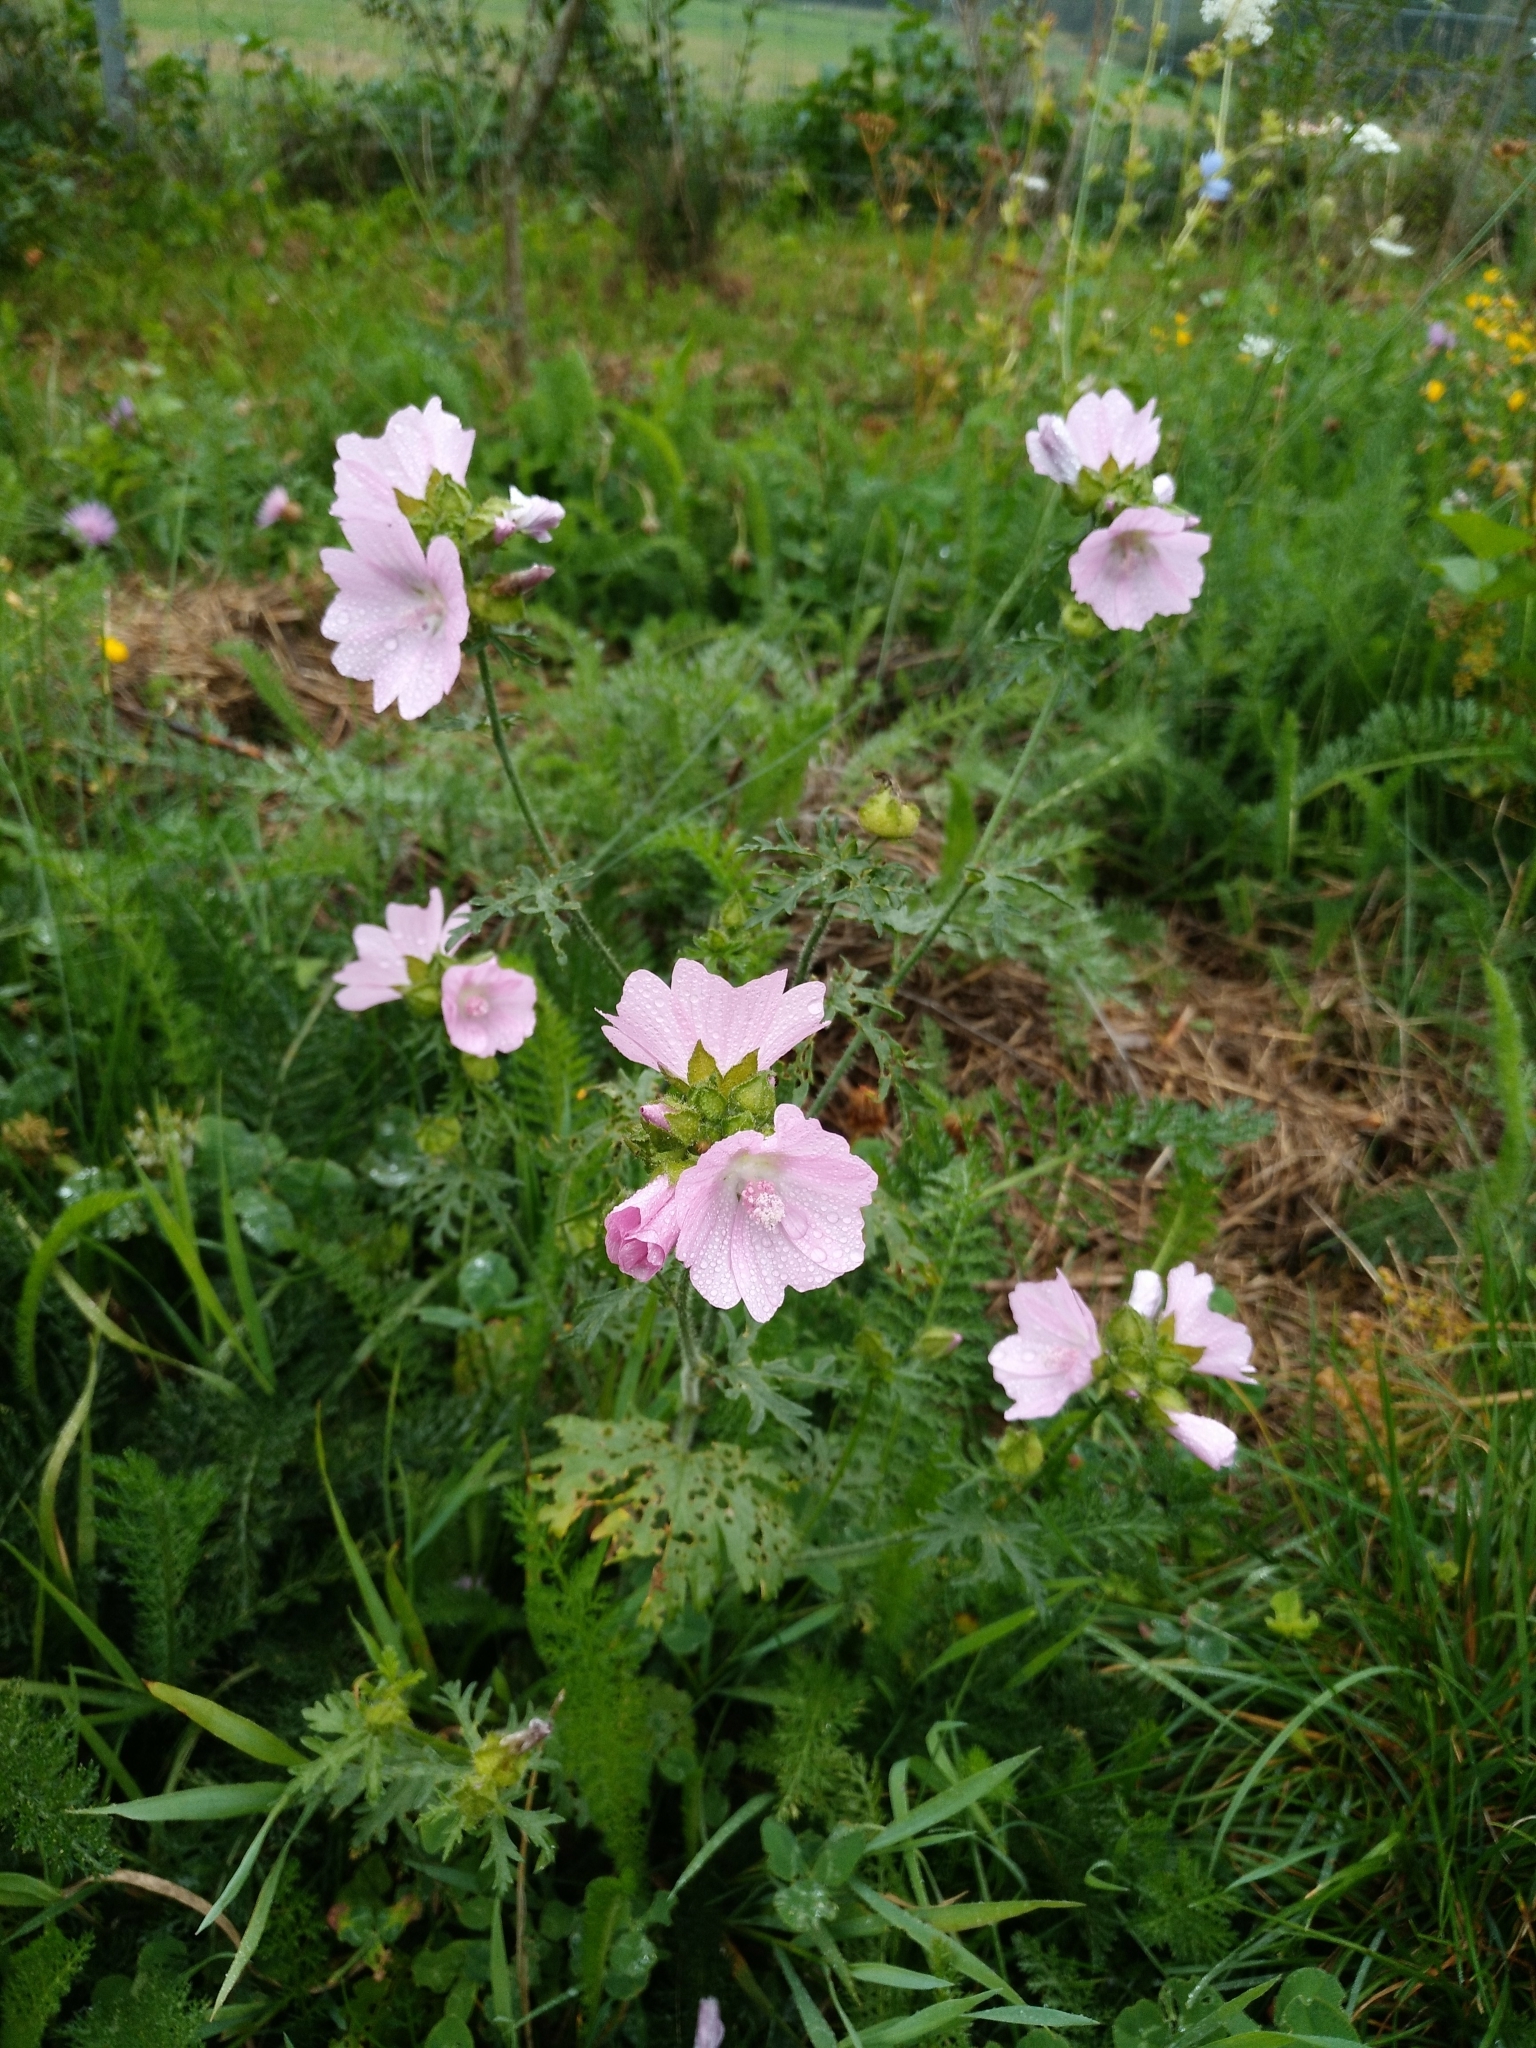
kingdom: Plantae
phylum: Tracheophyta
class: Magnoliopsida
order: Malvales
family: Malvaceae
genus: Malva
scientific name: Malva moschata
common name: Musk mallow
